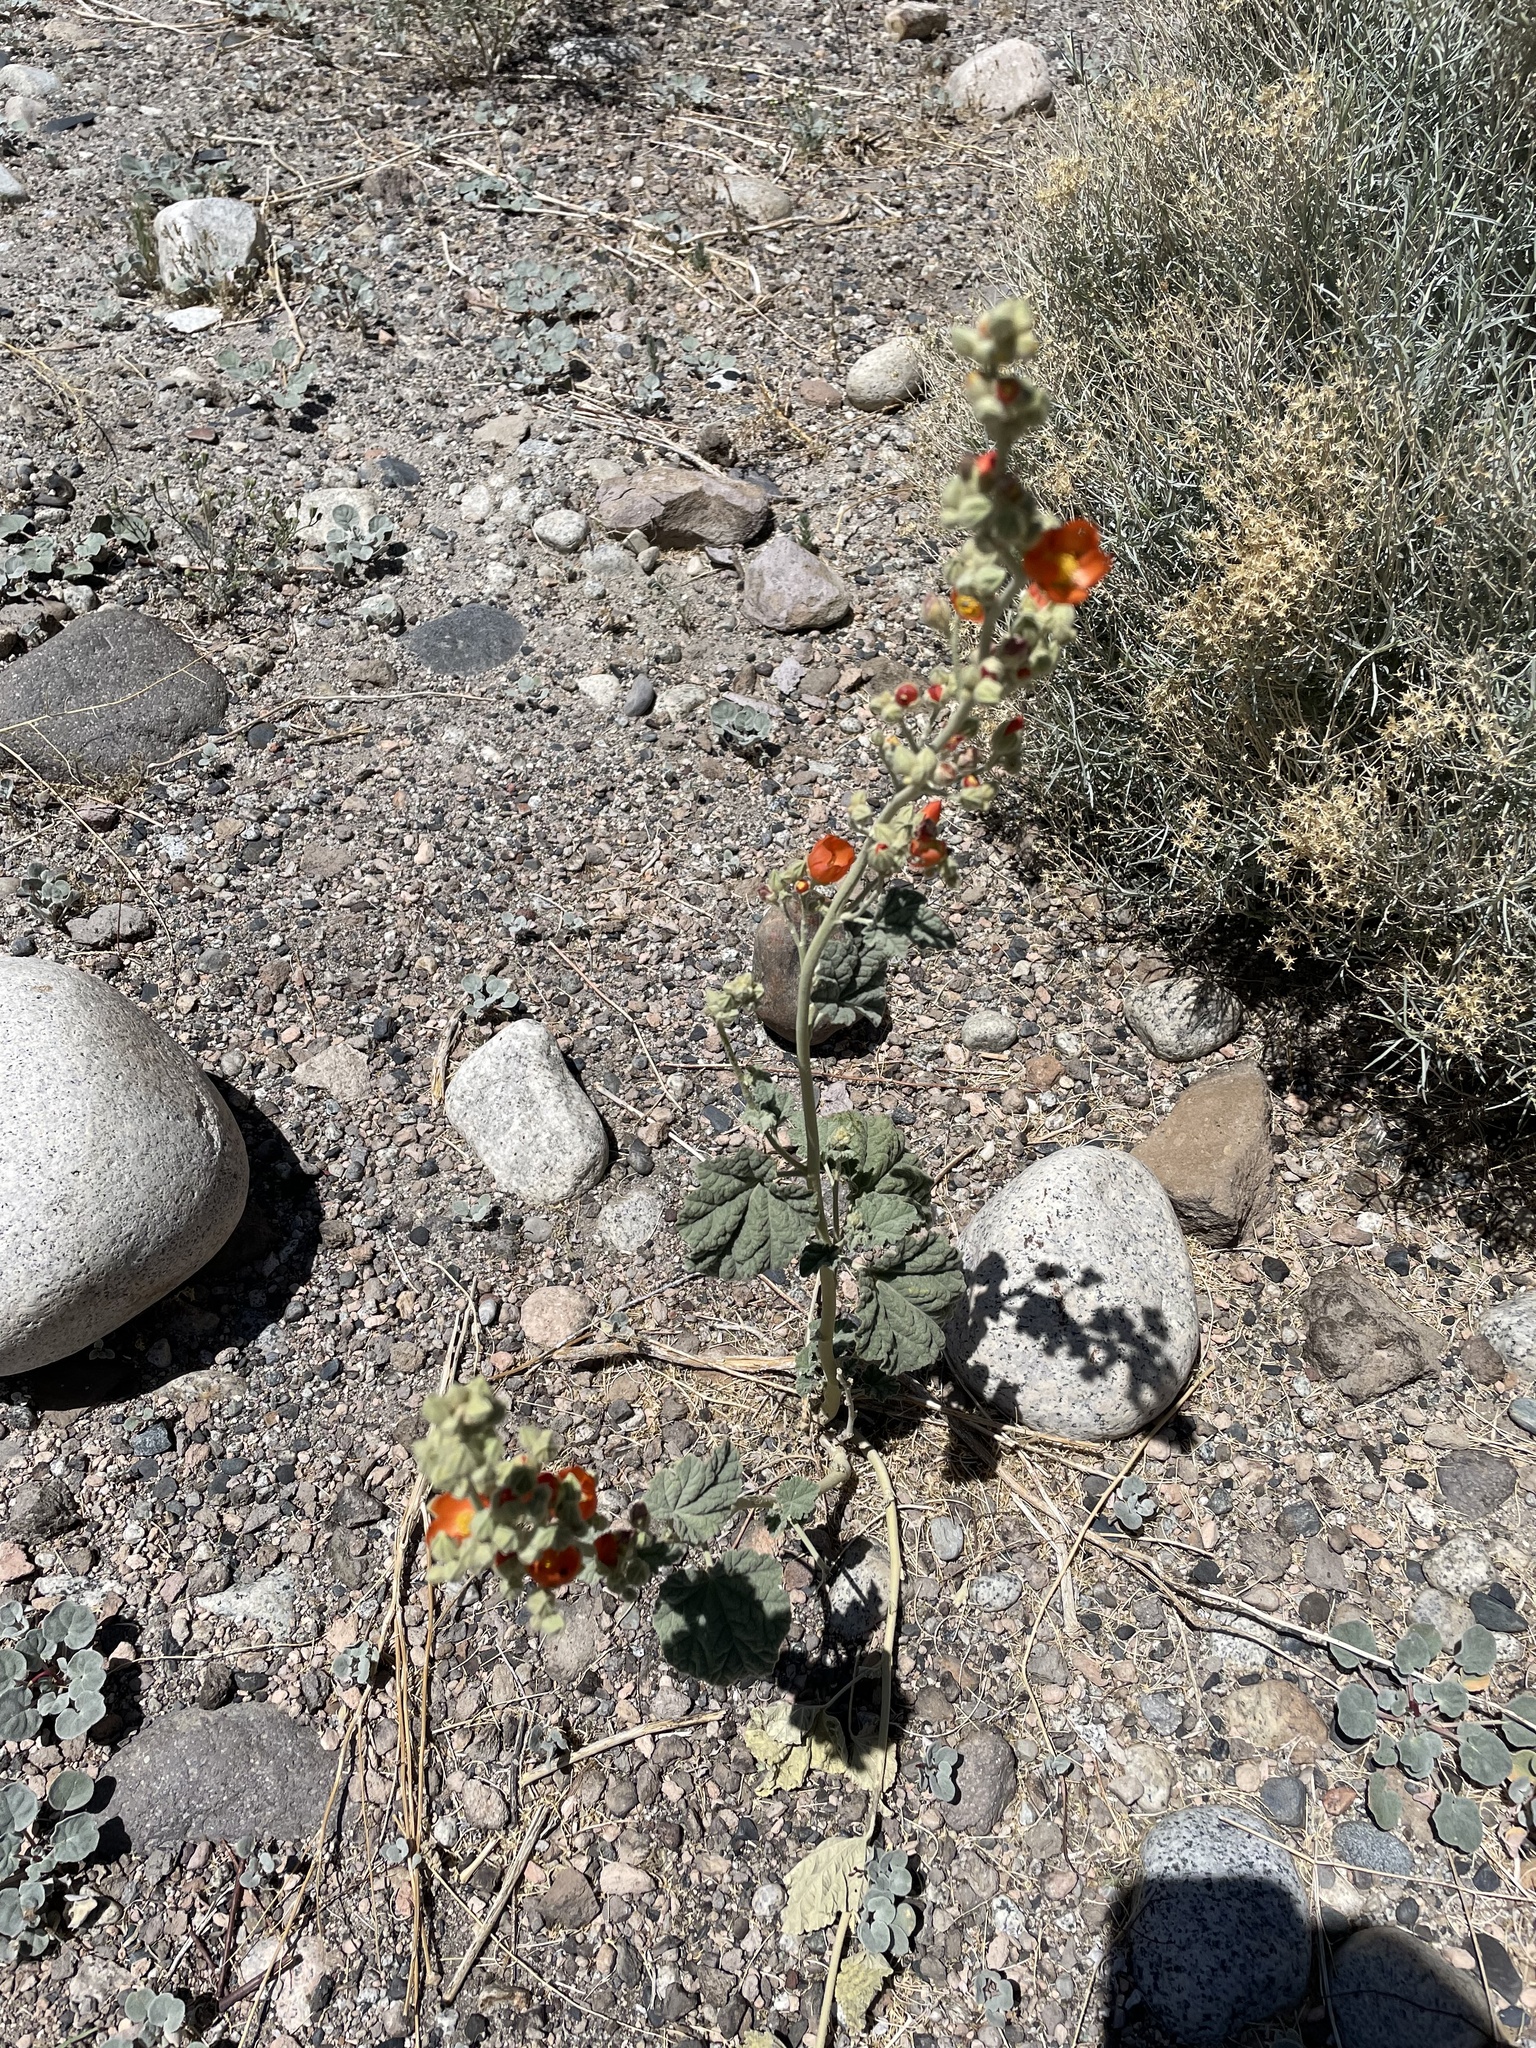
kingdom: Plantae
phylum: Tracheophyta
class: Magnoliopsida
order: Malvales
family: Malvaceae
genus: Sphaeralcea
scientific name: Sphaeralcea ambigua
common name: Apricot globe-mallow
